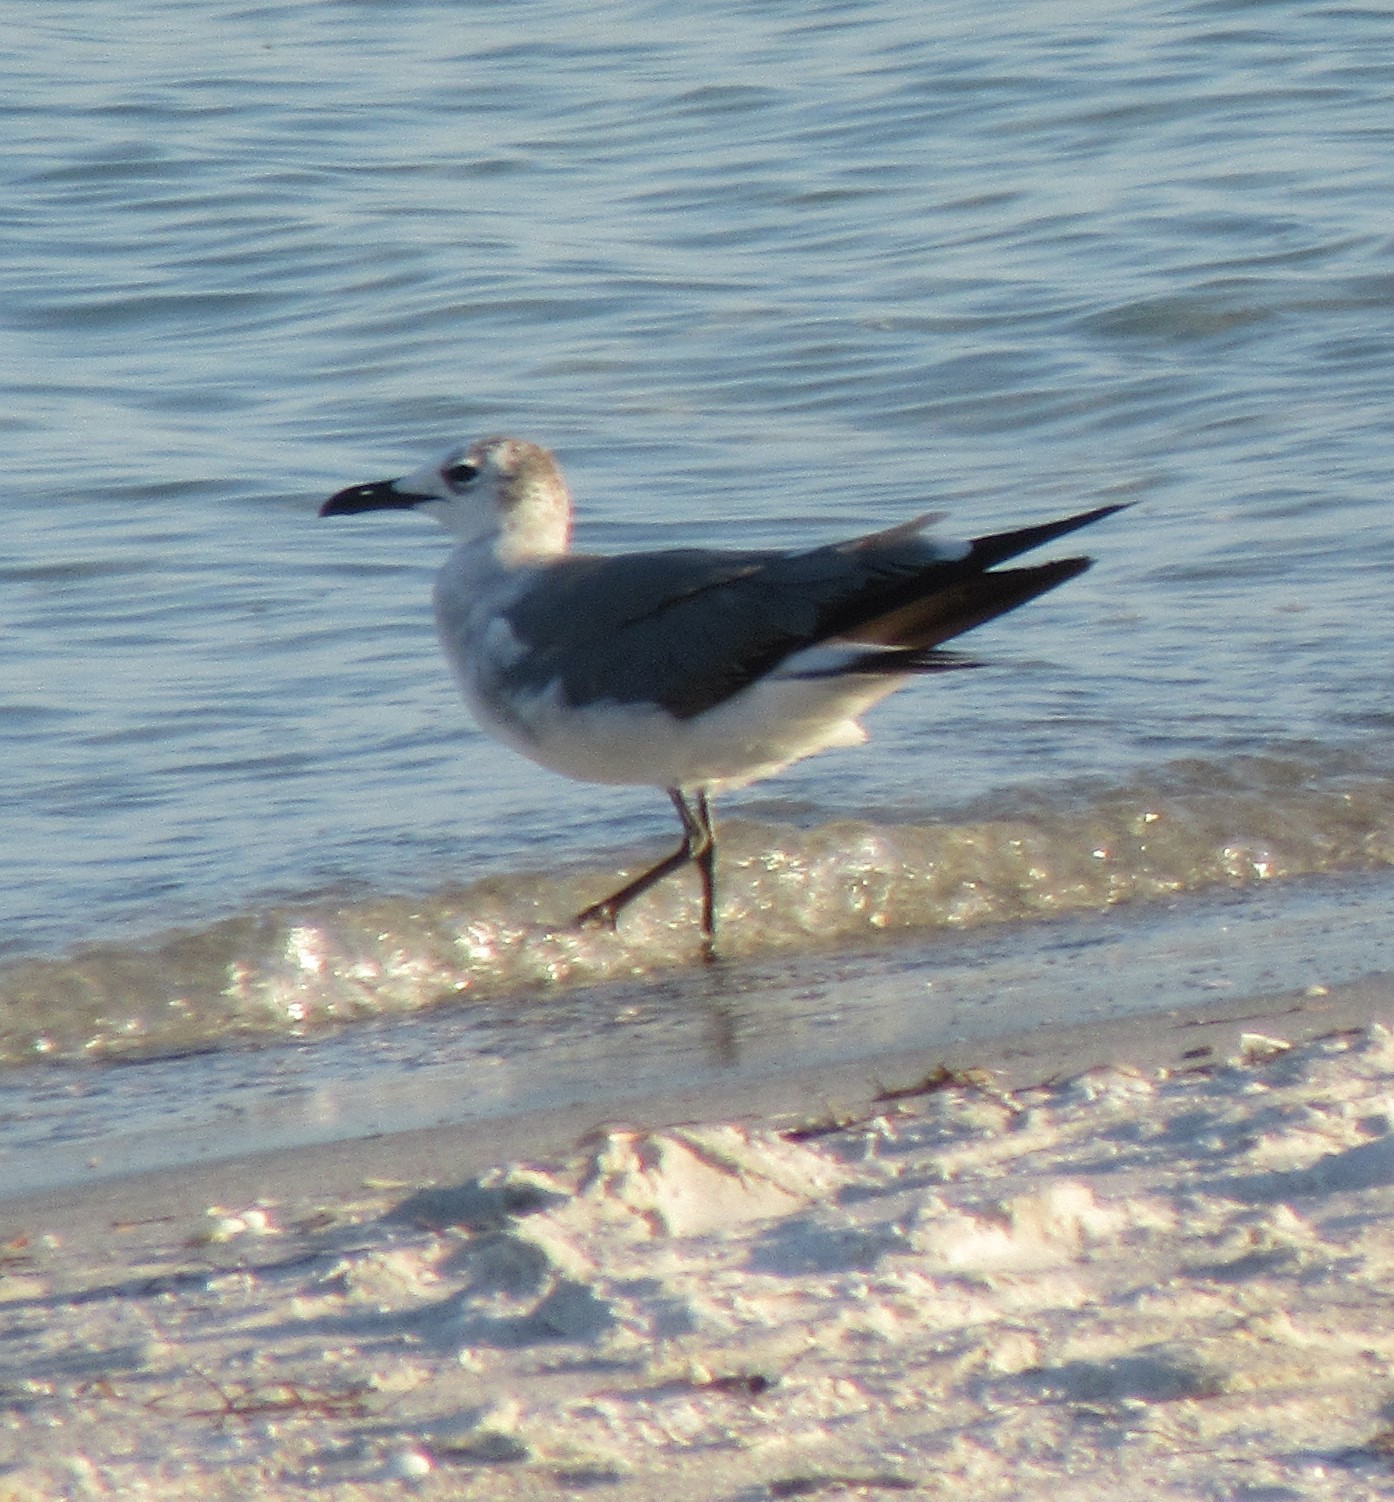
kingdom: Animalia
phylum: Chordata
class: Aves
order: Charadriiformes
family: Laridae
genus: Leucophaeus
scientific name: Leucophaeus atricilla
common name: Laughing gull
